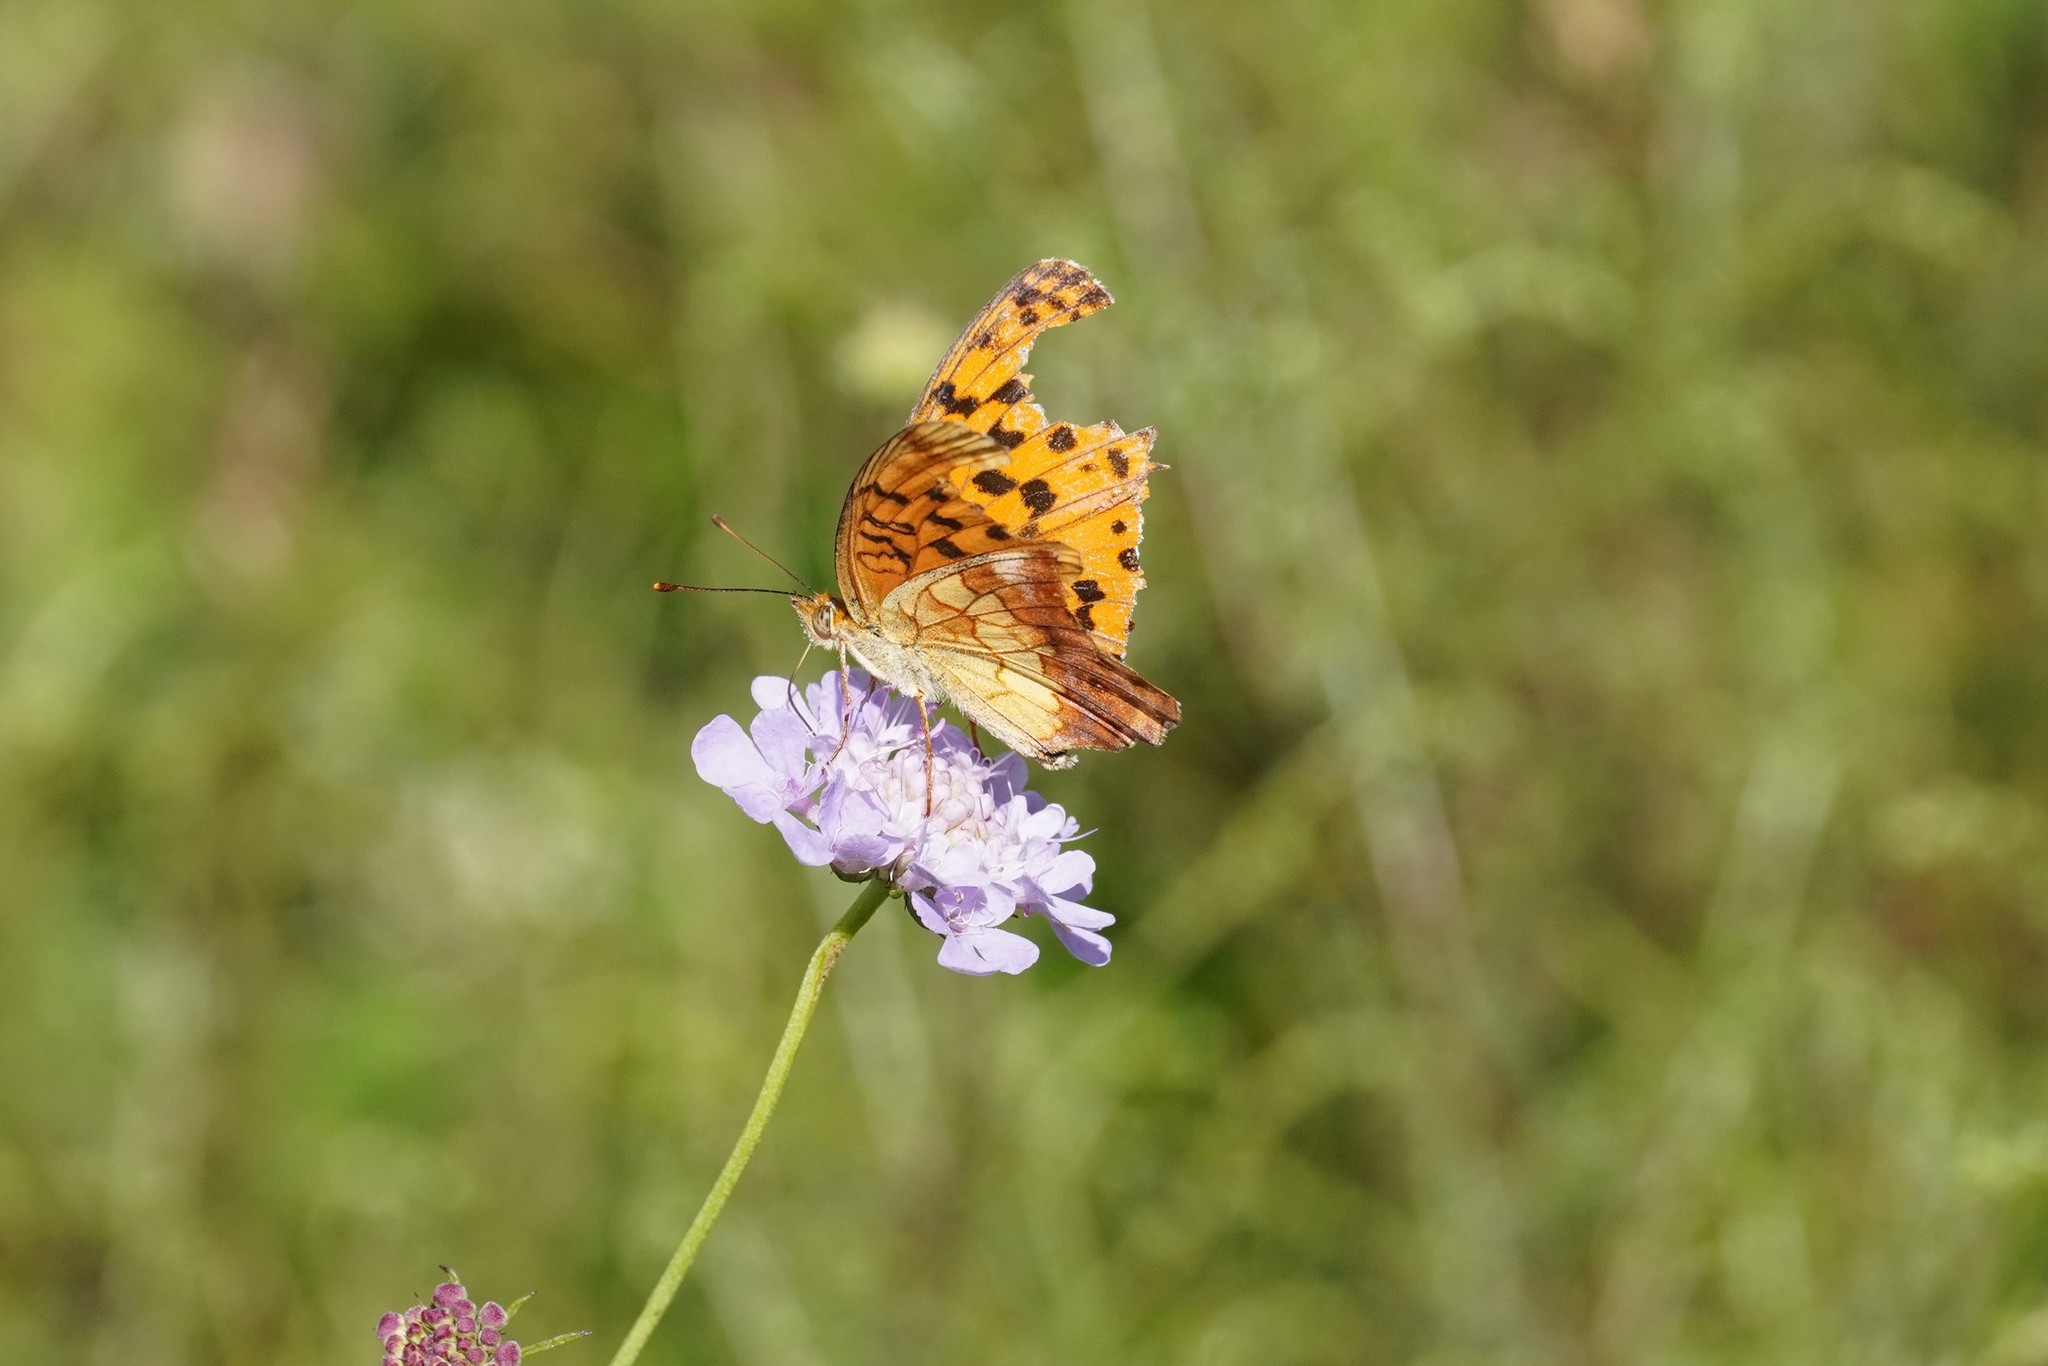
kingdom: Animalia
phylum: Arthropoda
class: Insecta
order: Lepidoptera
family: Nymphalidae
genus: Brenthis
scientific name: Brenthis daphne
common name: Marbled fritillary
